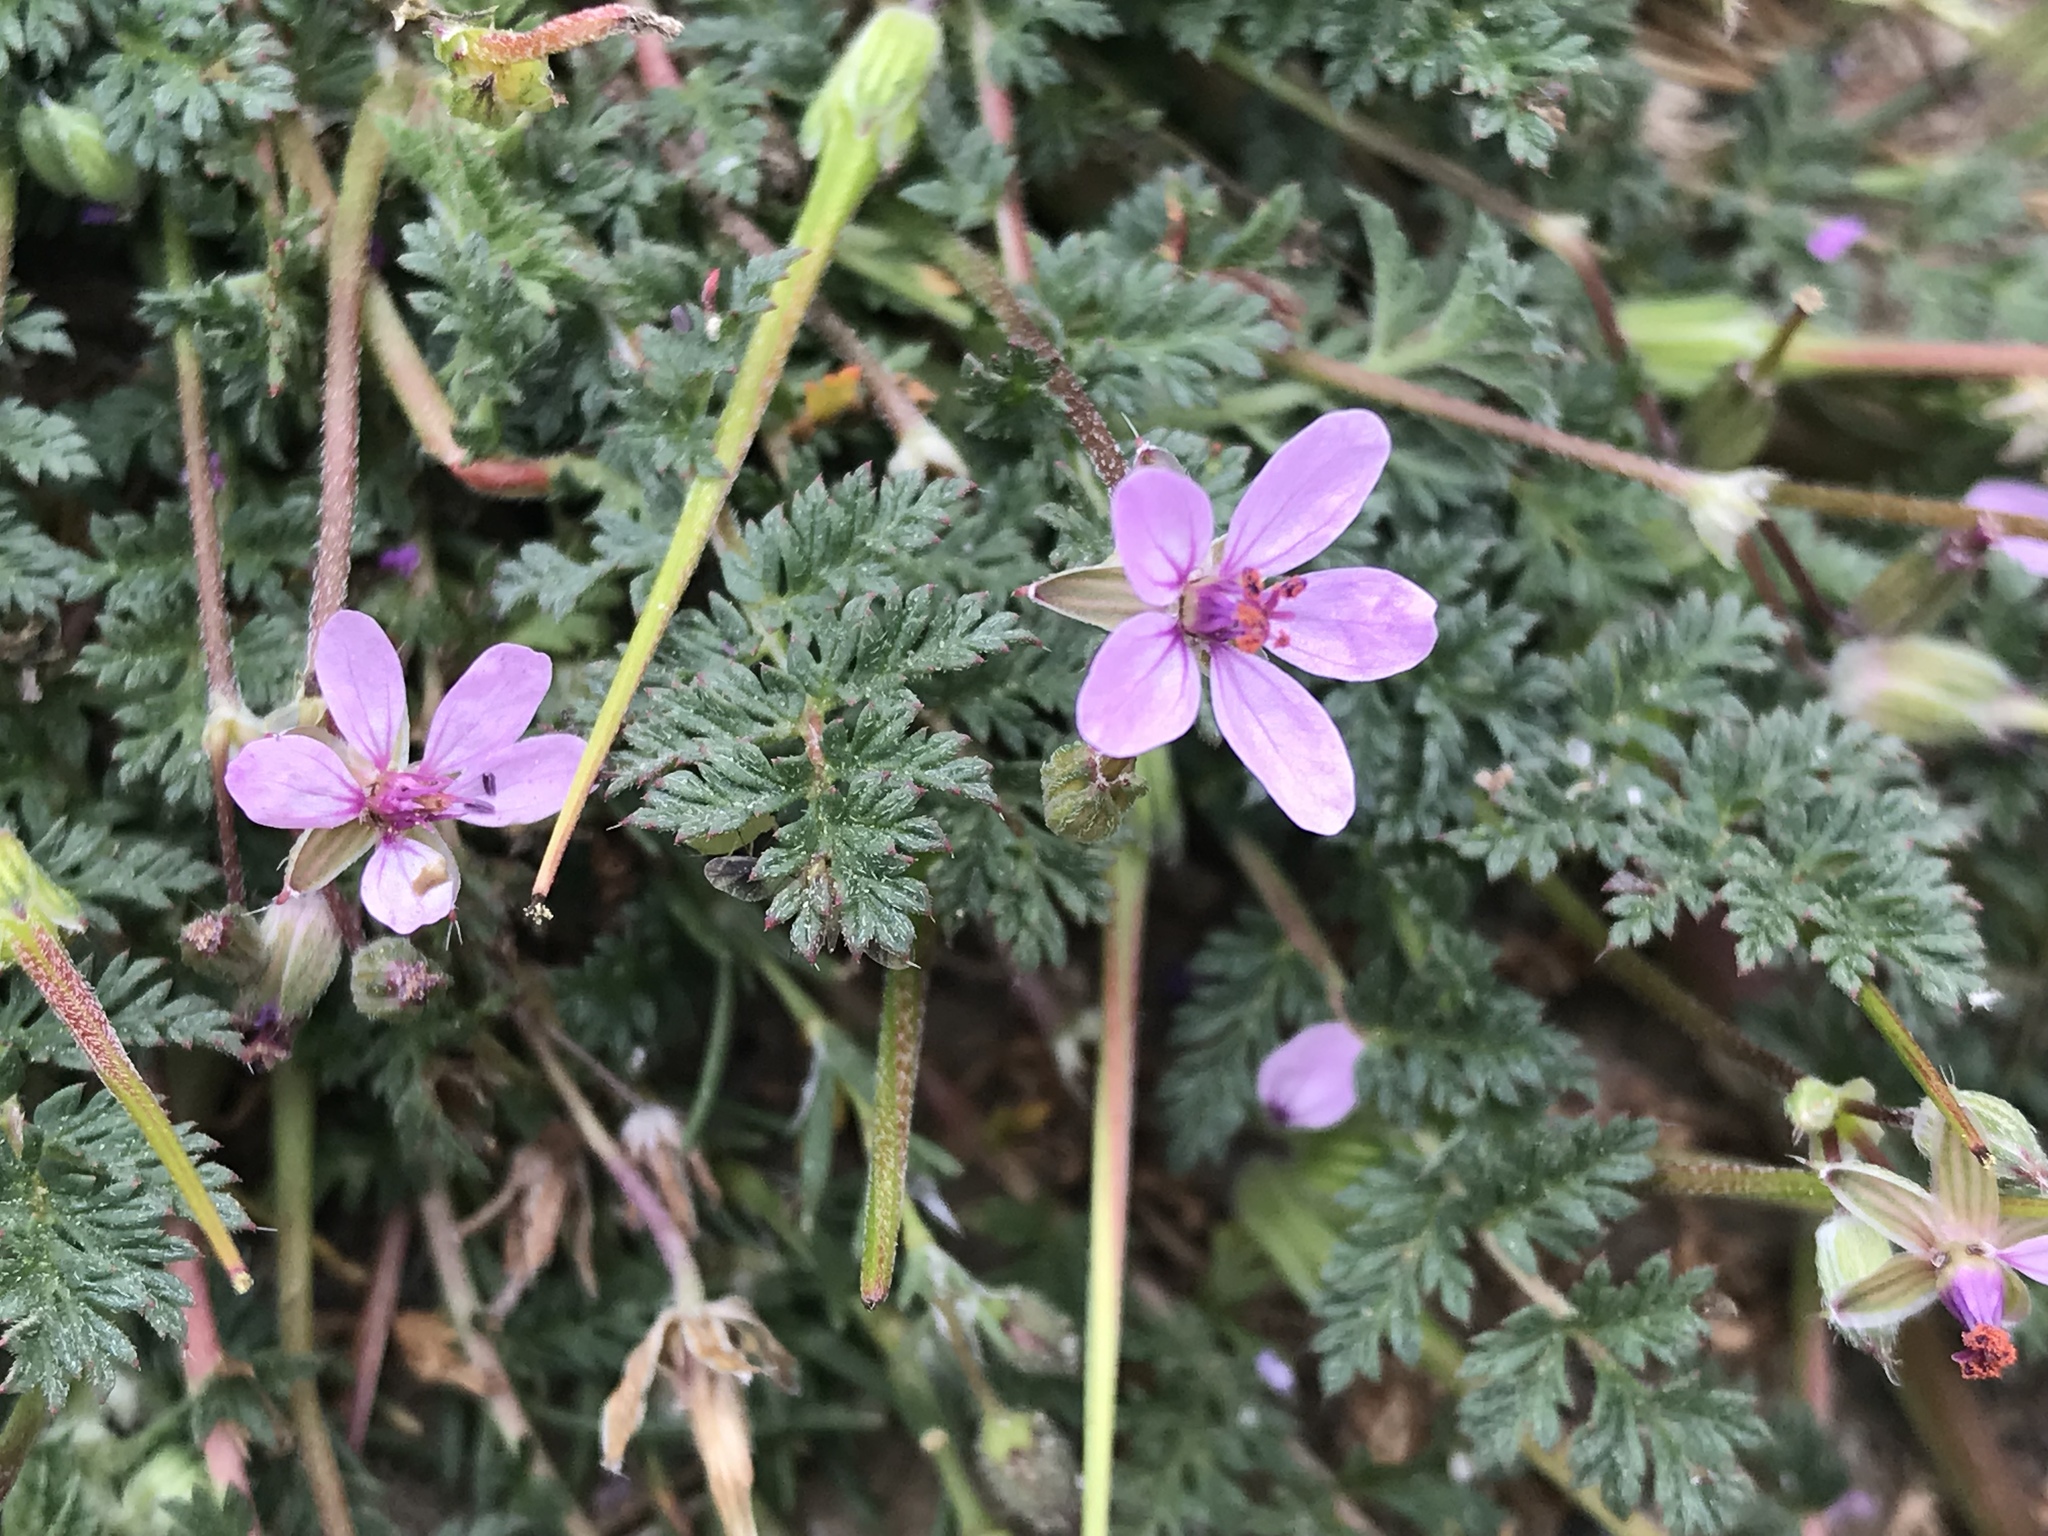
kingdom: Plantae
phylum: Tracheophyta
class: Magnoliopsida
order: Geraniales
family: Geraniaceae
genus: Erodium
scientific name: Erodium cicutarium
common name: Common stork's-bill
